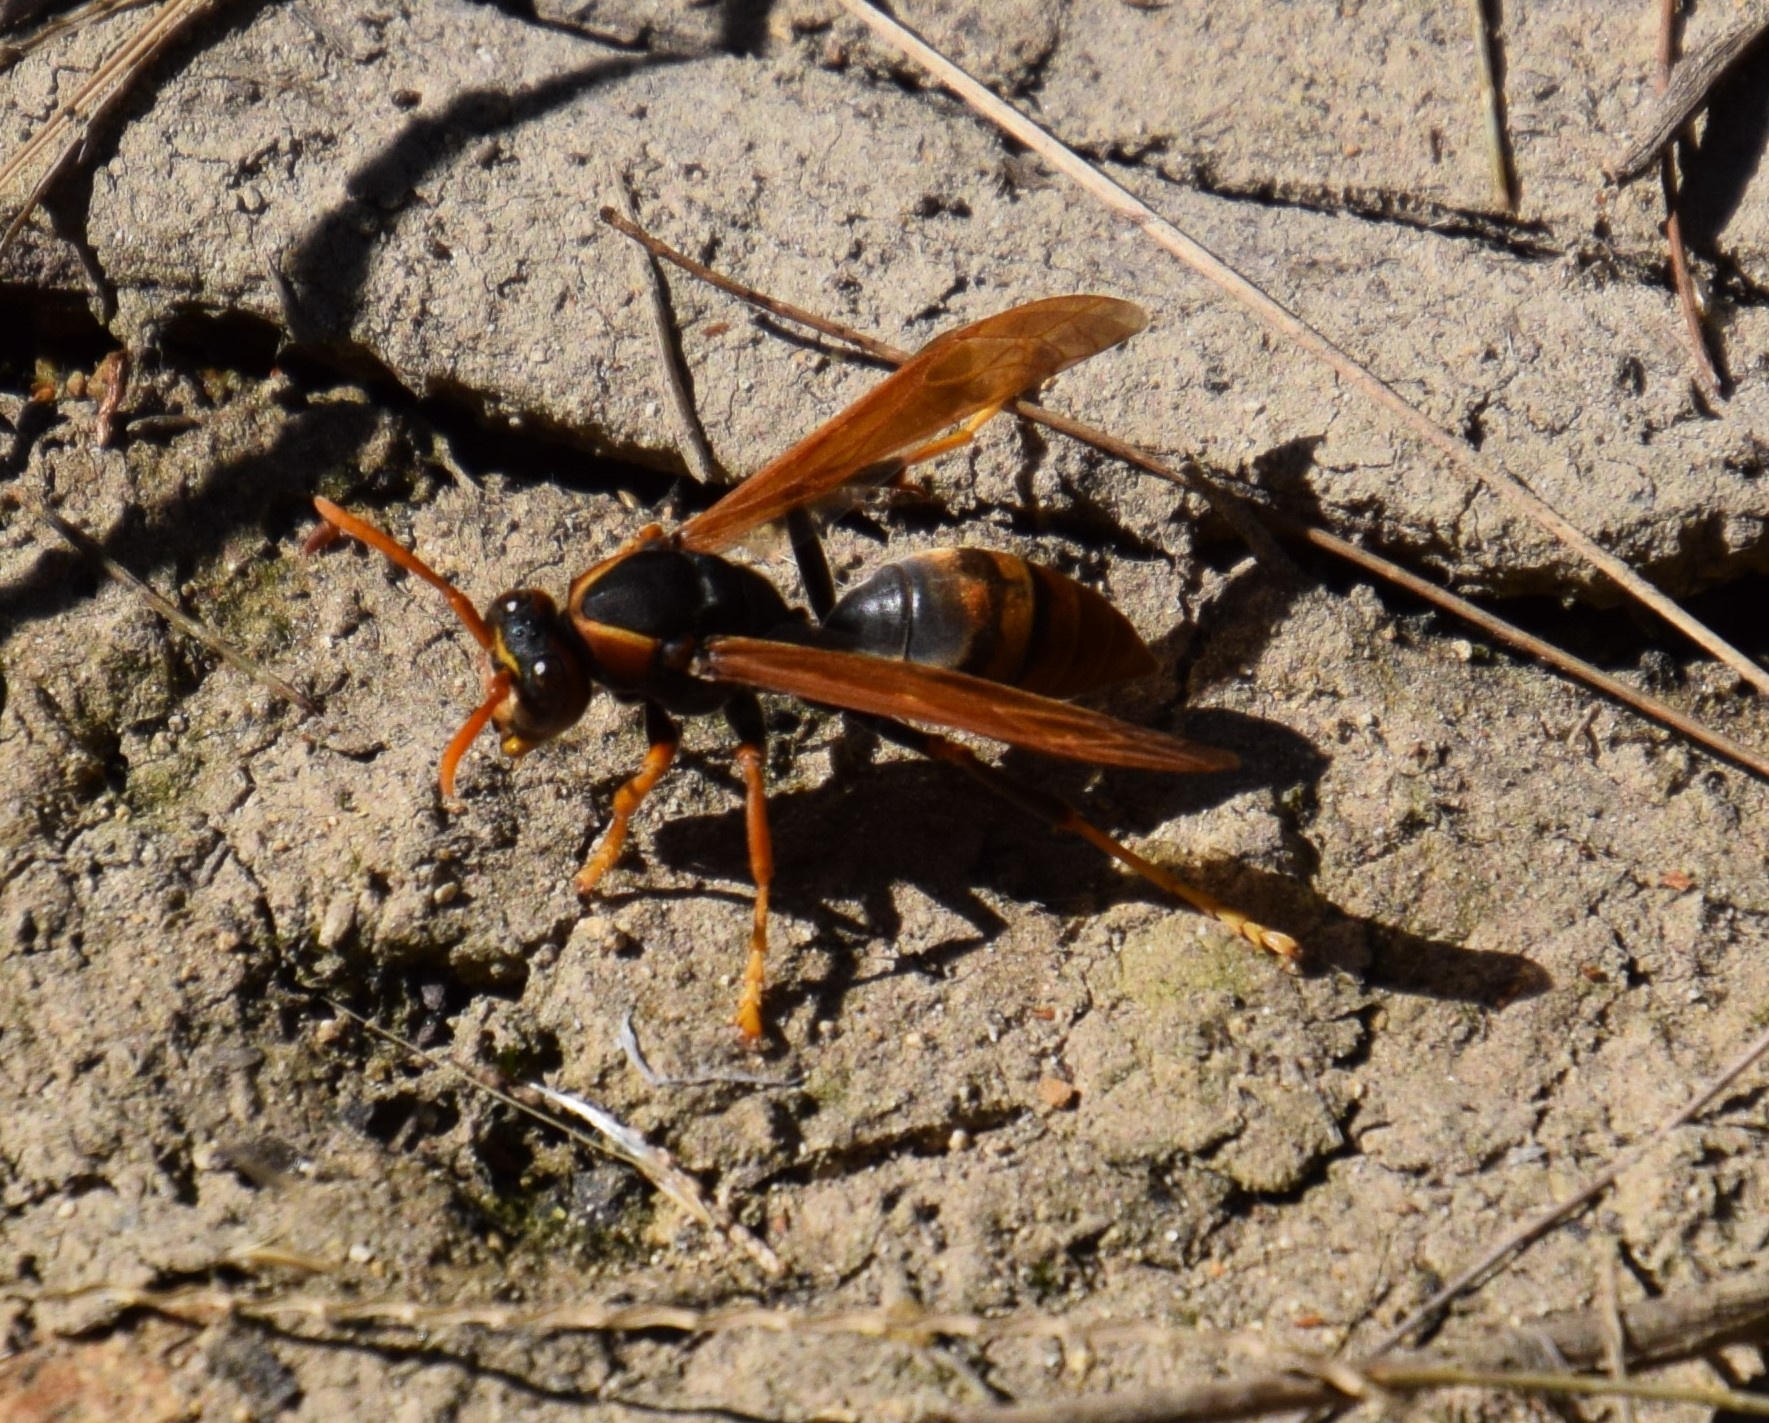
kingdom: Animalia
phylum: Arthropoda
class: Insecta
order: Hymenoptera
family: Eumenidae
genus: Polistes
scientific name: Polistes humilis
